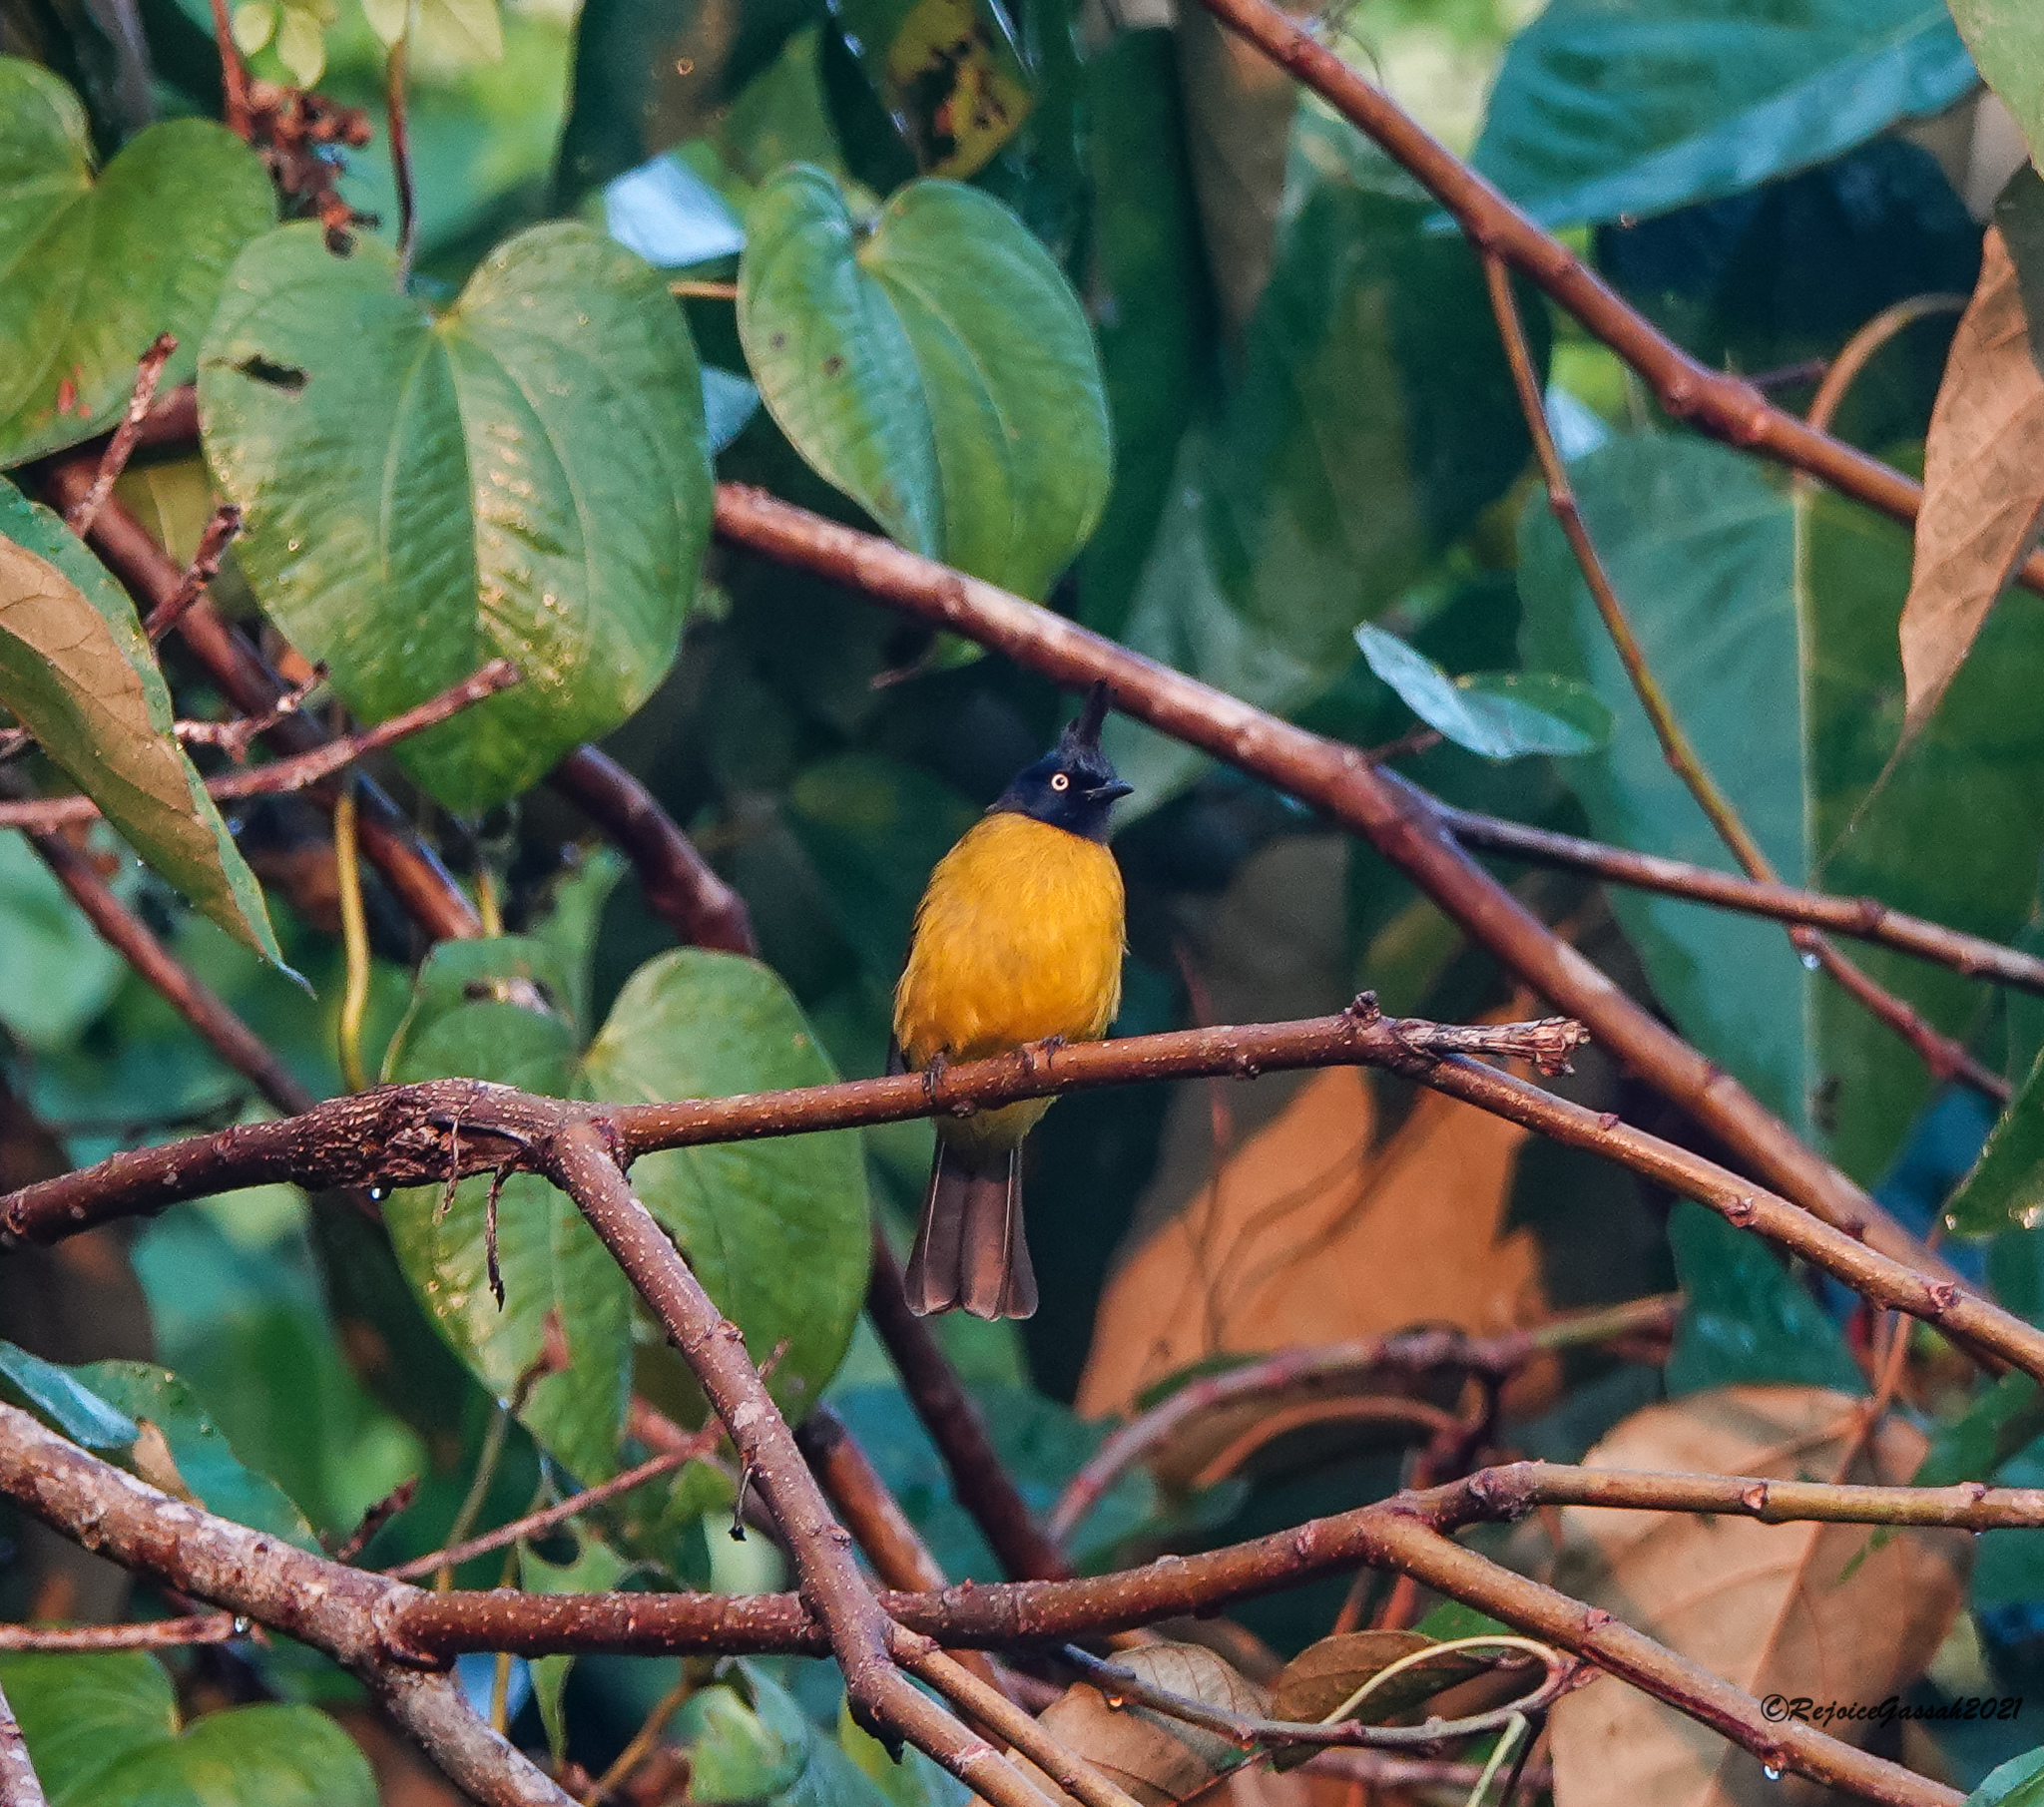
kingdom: Animalia
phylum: Chordata
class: Aves
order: Passeriformes
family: Pycnonotidae
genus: Pycnonotus
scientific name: Pycnonotus flaviventris
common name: Black-crested bulbul
